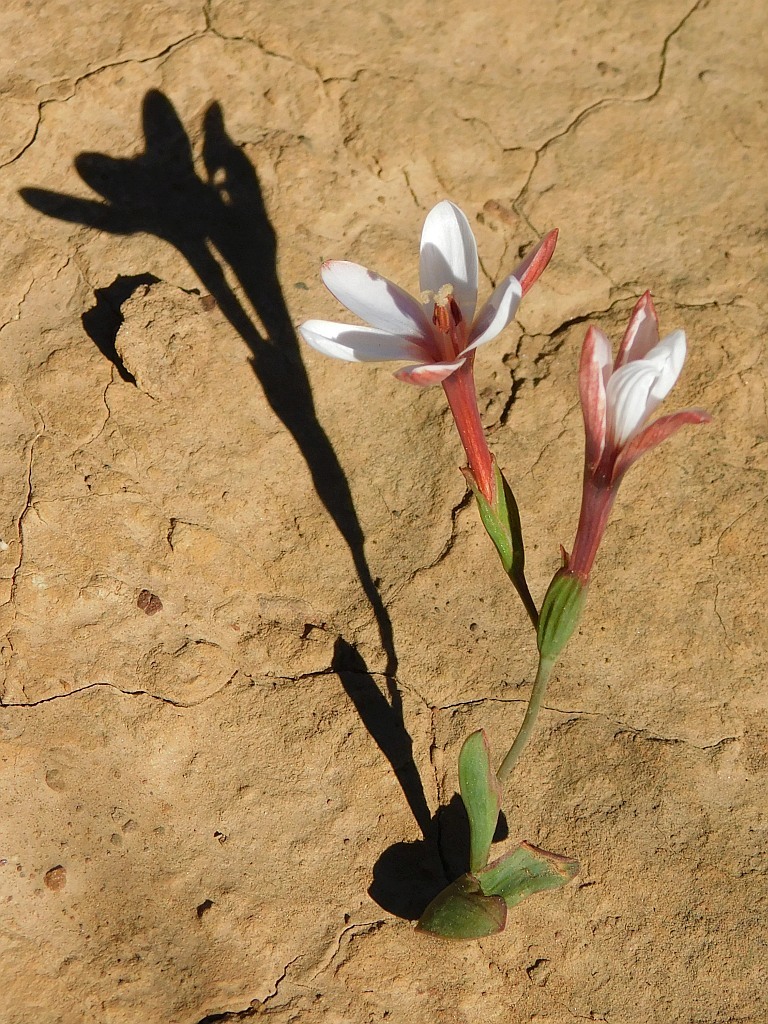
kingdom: Plantae
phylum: Tracheophyta
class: Liliopsida
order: Asparagales
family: Iridaceae
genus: Geissorhiza
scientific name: Geissorhiza ovata
